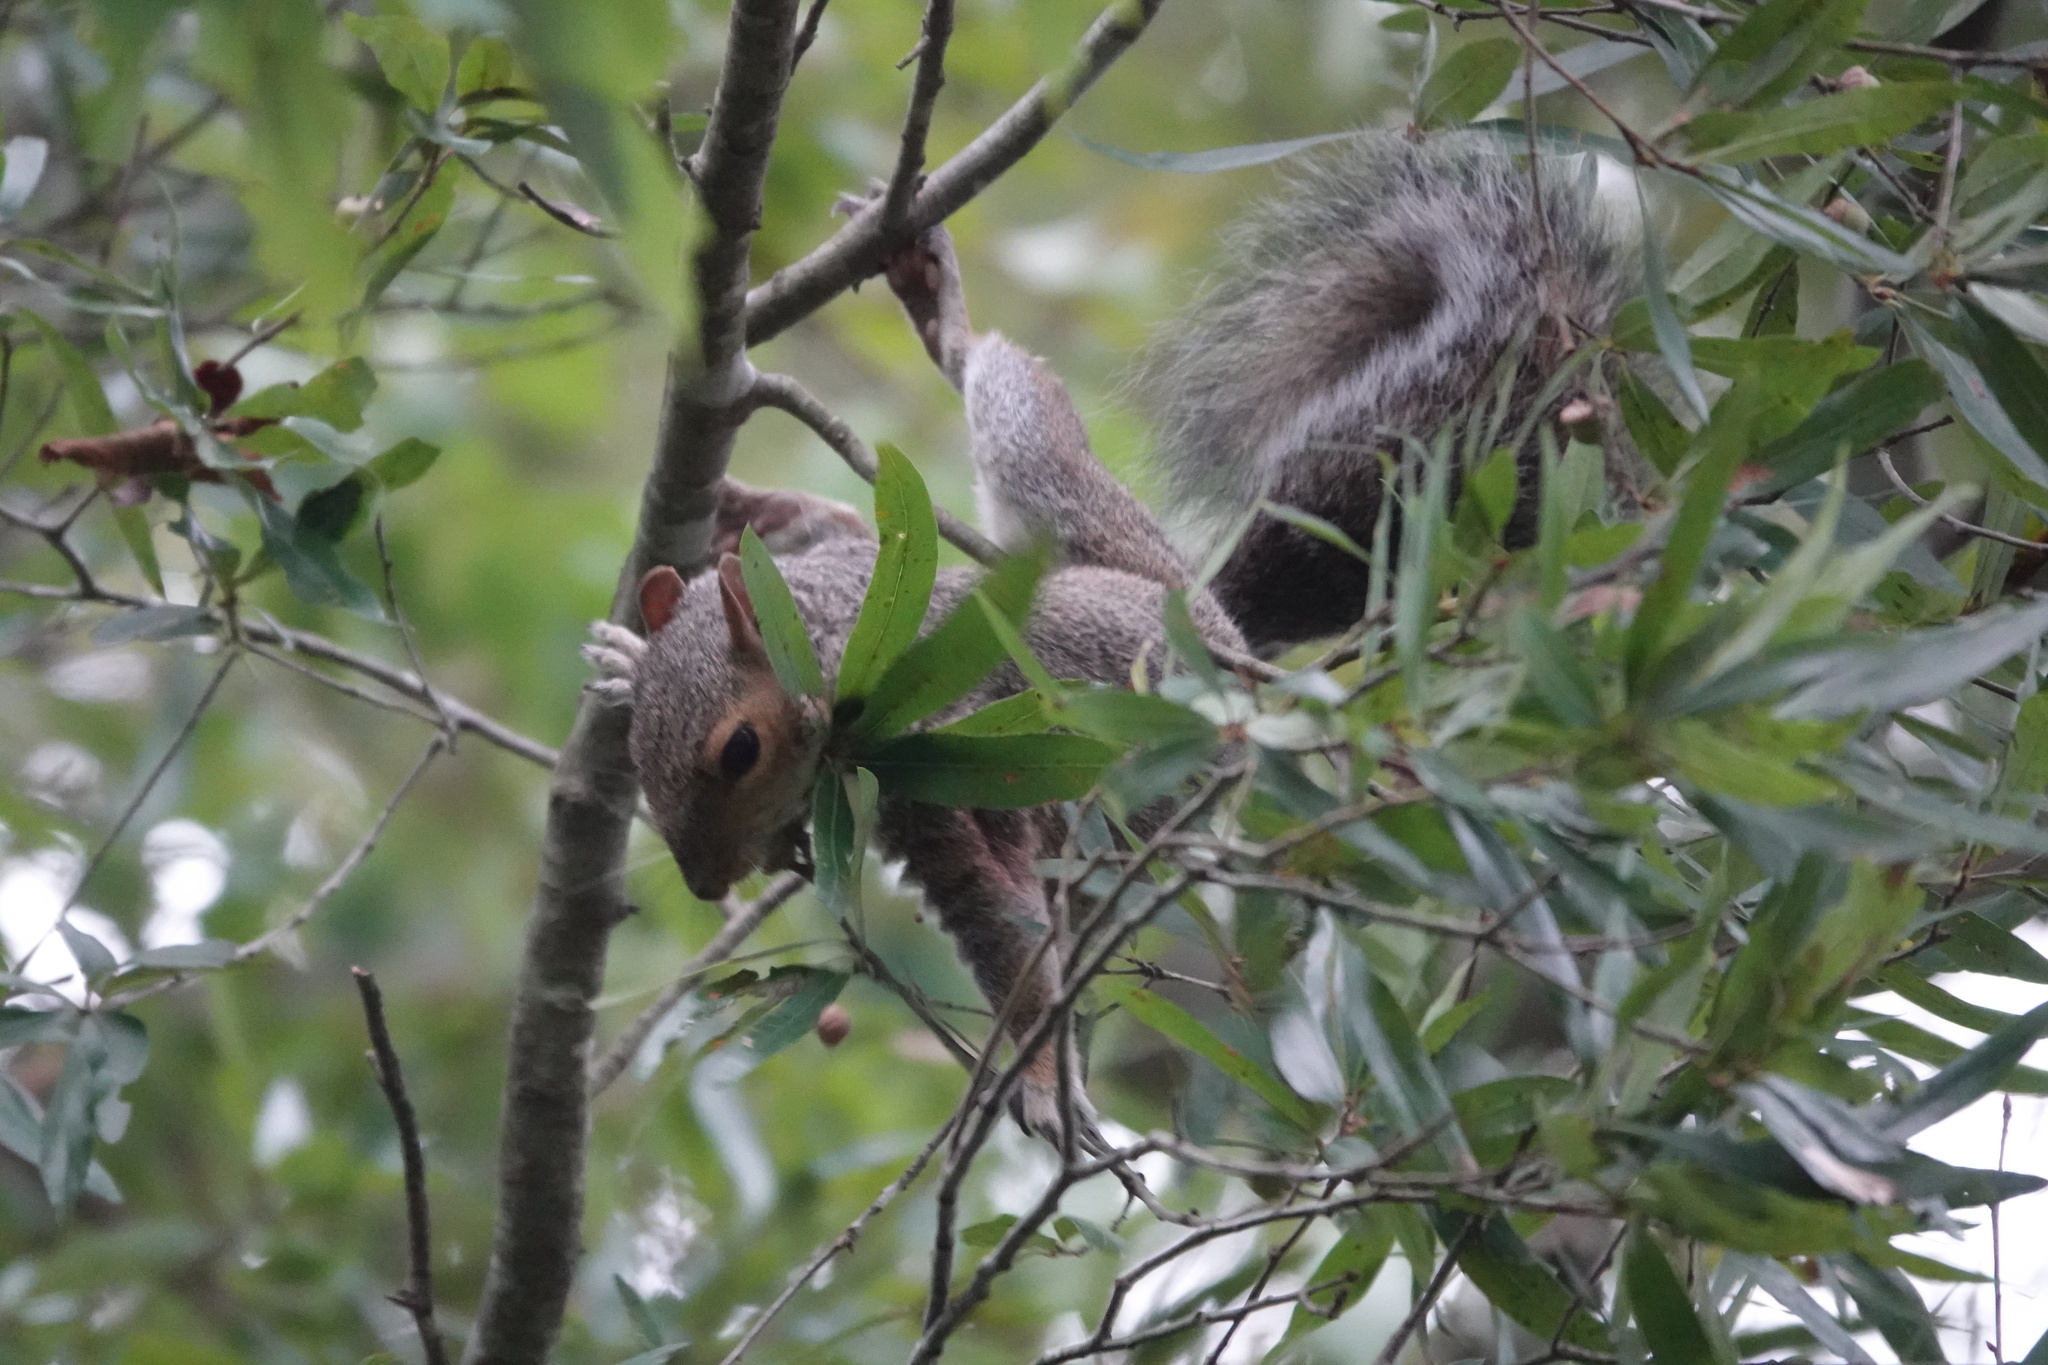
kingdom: Animalia
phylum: Chordata
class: Mammalia
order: Rodentia
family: Sciuridae
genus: Sciurus
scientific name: Sciurus carolinensis
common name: Eastern gray squirrel
